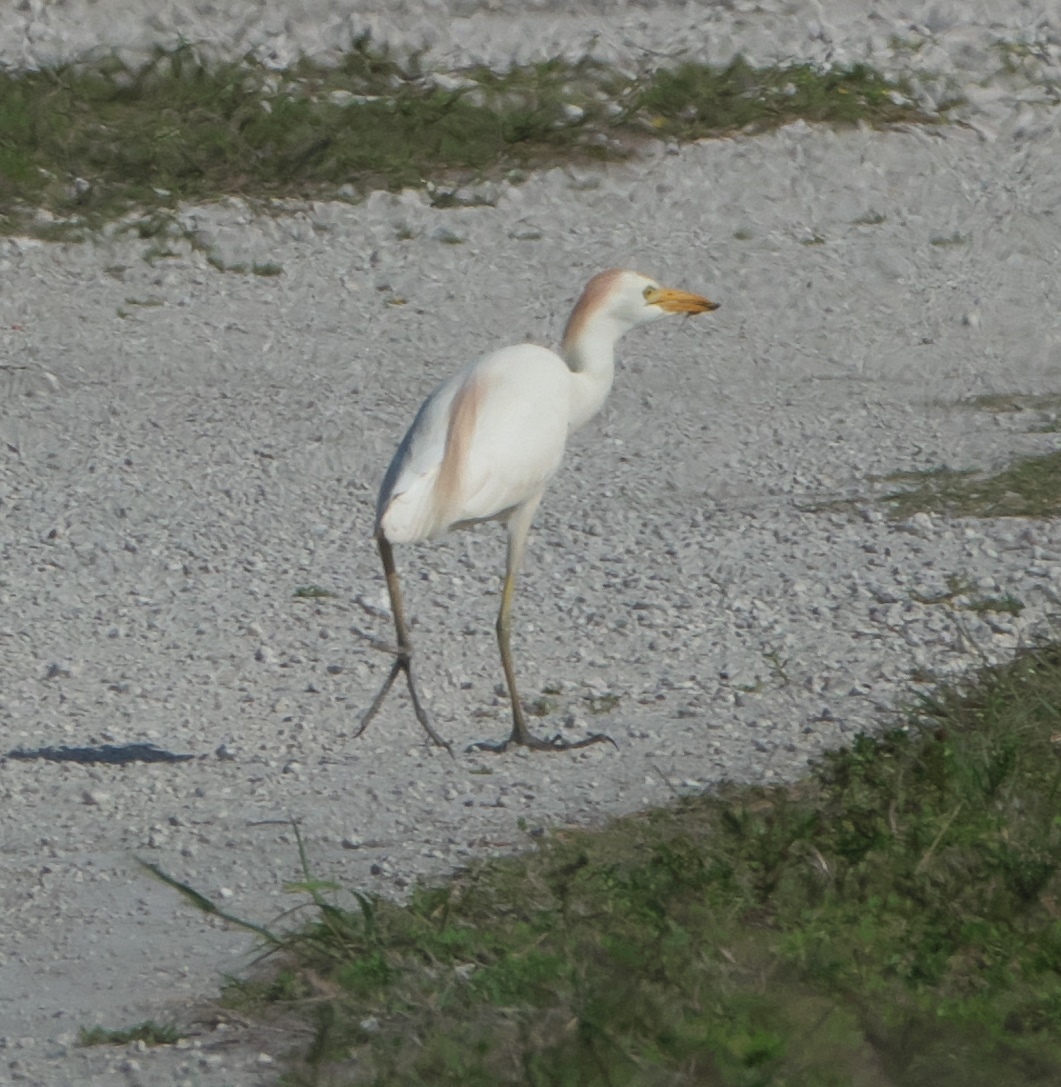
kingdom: Animalia
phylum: Chordata
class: Aves
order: Pelecaniformes
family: Ardeidae
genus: Bubulcus
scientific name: Bubulcus ibis
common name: Cattle egret
